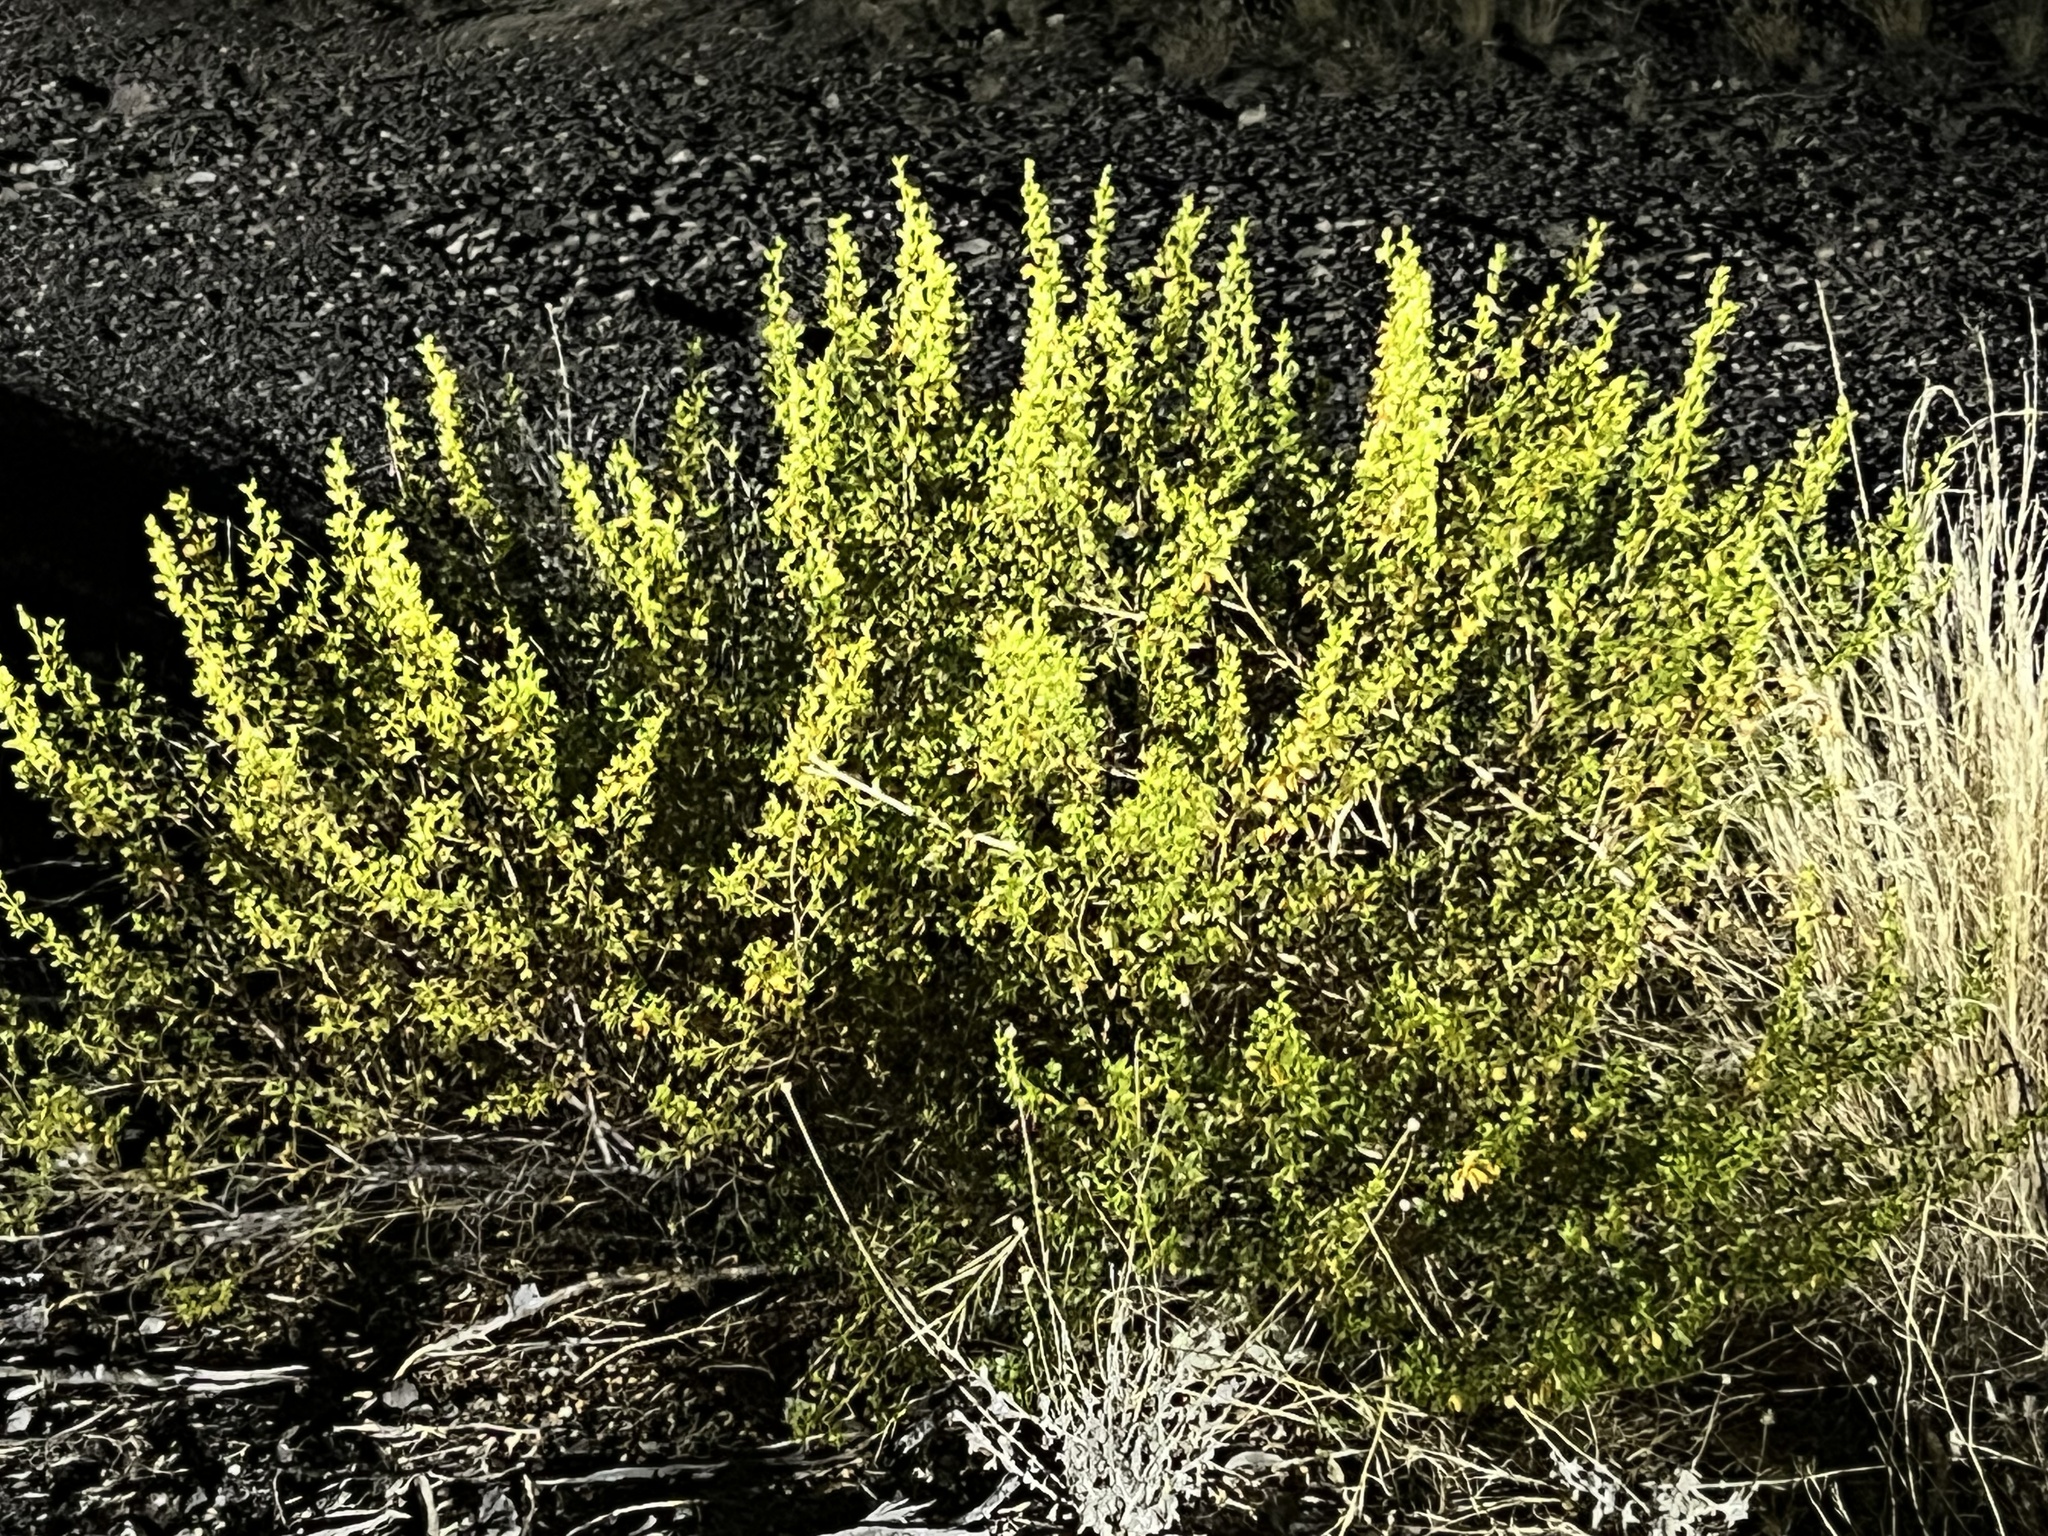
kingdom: Plantae
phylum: Tracheophyta
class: Magnoliopsida
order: Zygophyllales
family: Zygophyllaceae
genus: Larrea
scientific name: Larrea tridentata
